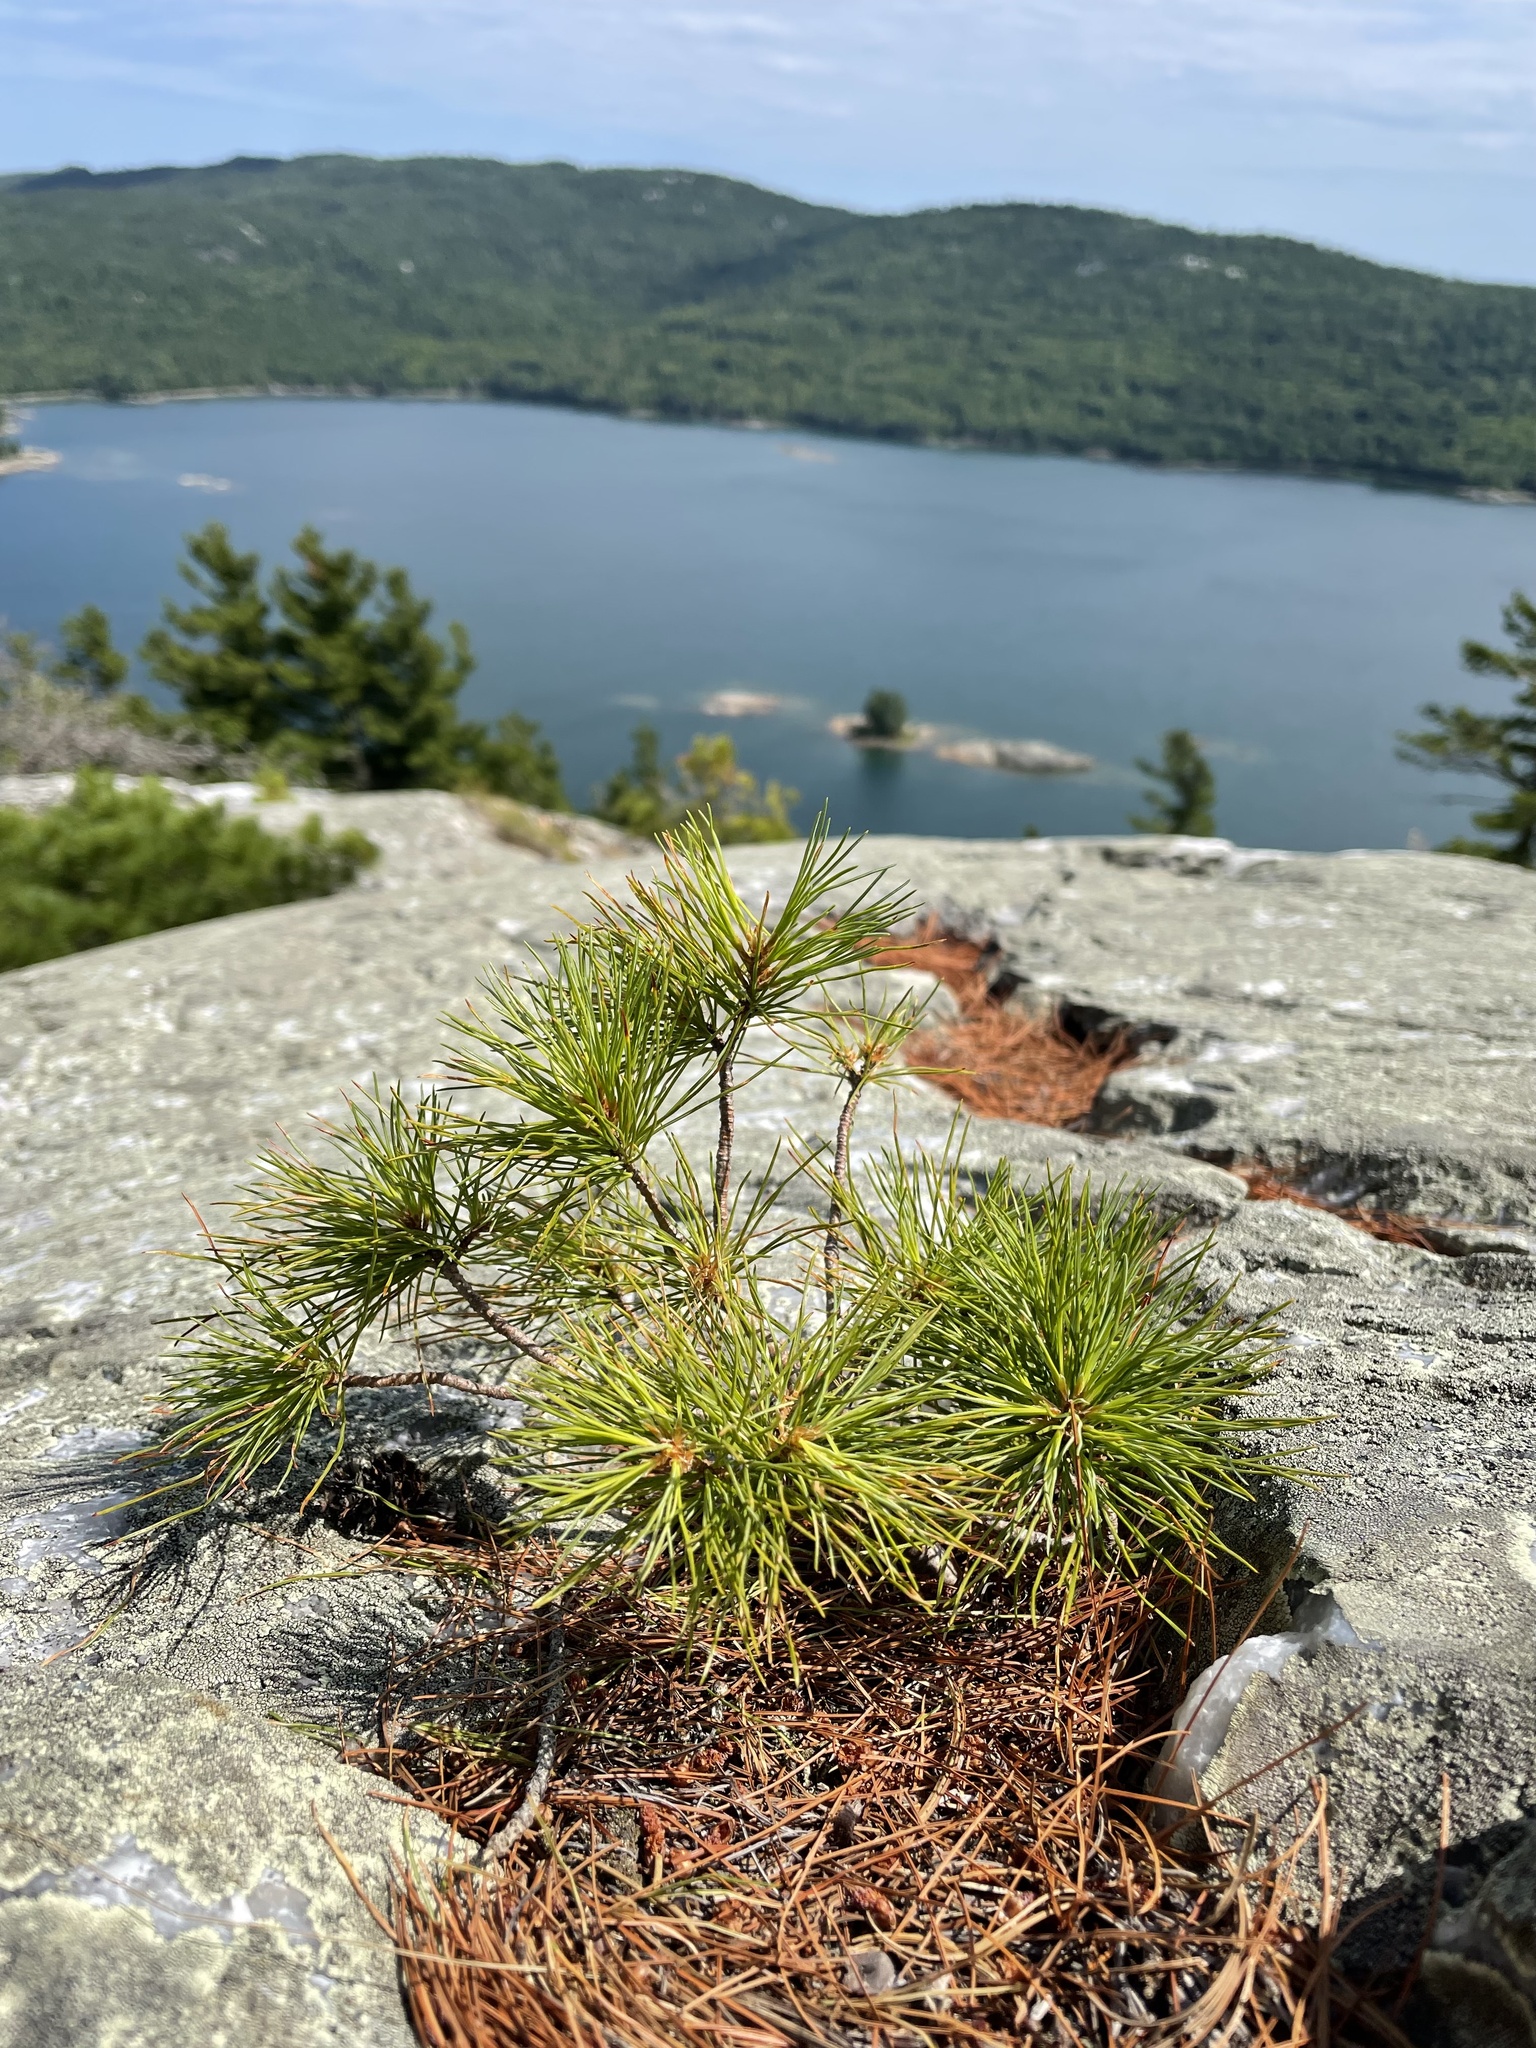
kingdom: Plantae
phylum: Tracheophyta
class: Pinopsida
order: Pinales
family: Pinaceae
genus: Pinus
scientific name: Pinus strobus
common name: Weymouth pine
